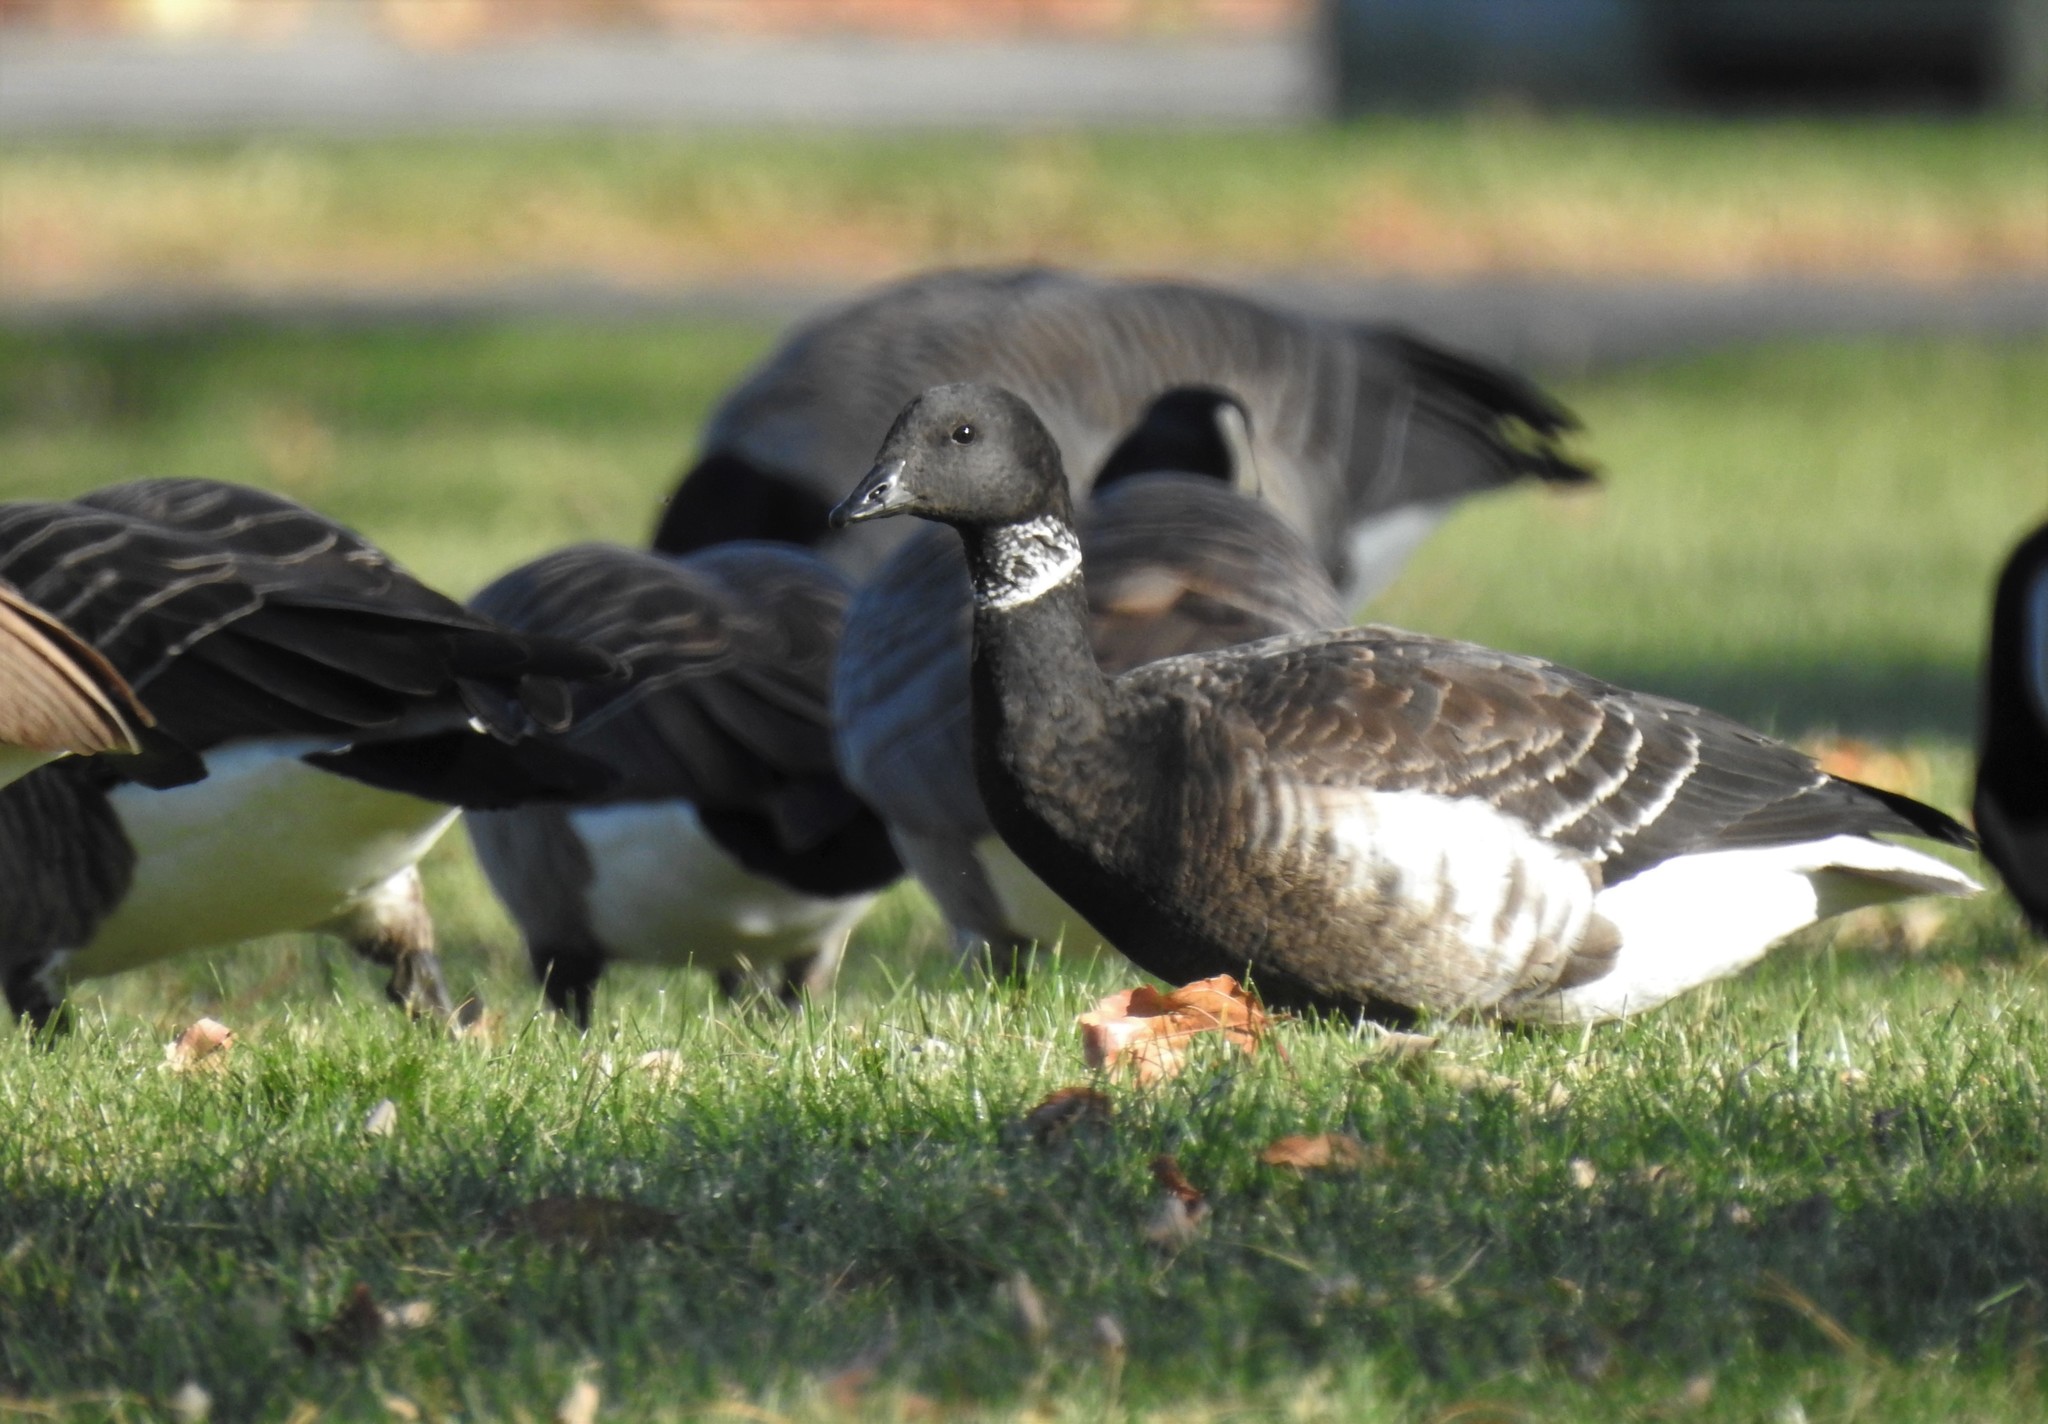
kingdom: Animalia
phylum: Chordata
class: Aves
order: Anseriformes
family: Anatidae
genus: Branta
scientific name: Branta bernicla
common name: Brant goose
